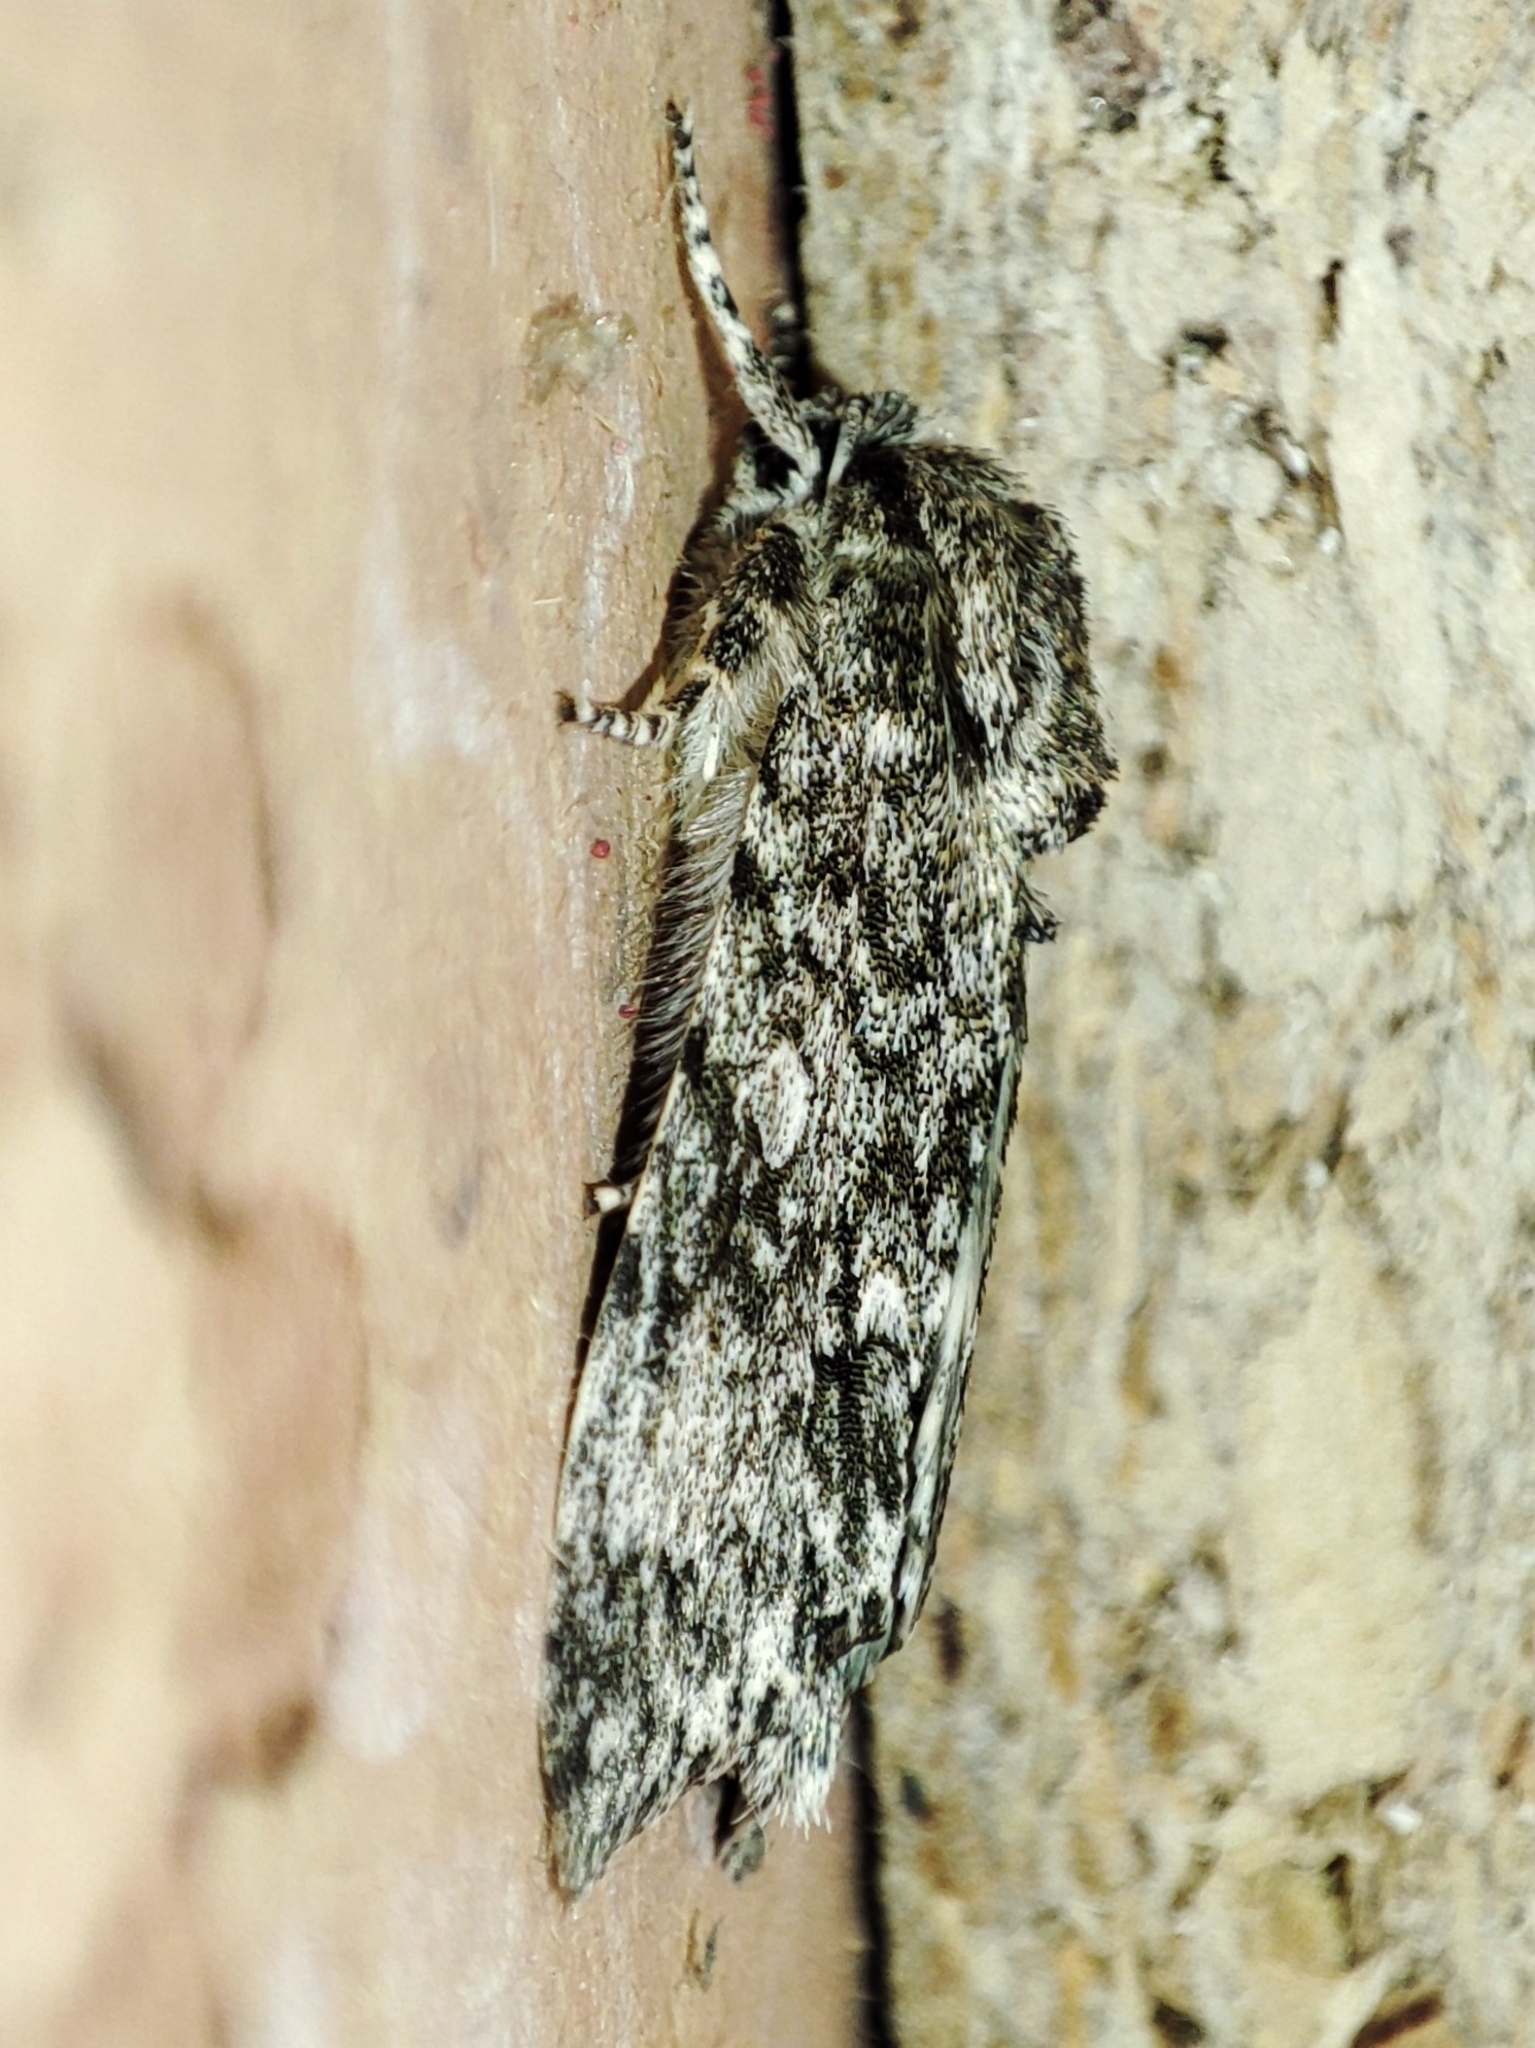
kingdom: Animalia
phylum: Arthropoda
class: Insecta
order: Lepidoptera
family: Noctuidae
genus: Acronicta
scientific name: Acronicta megacephala
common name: Poplar grey
